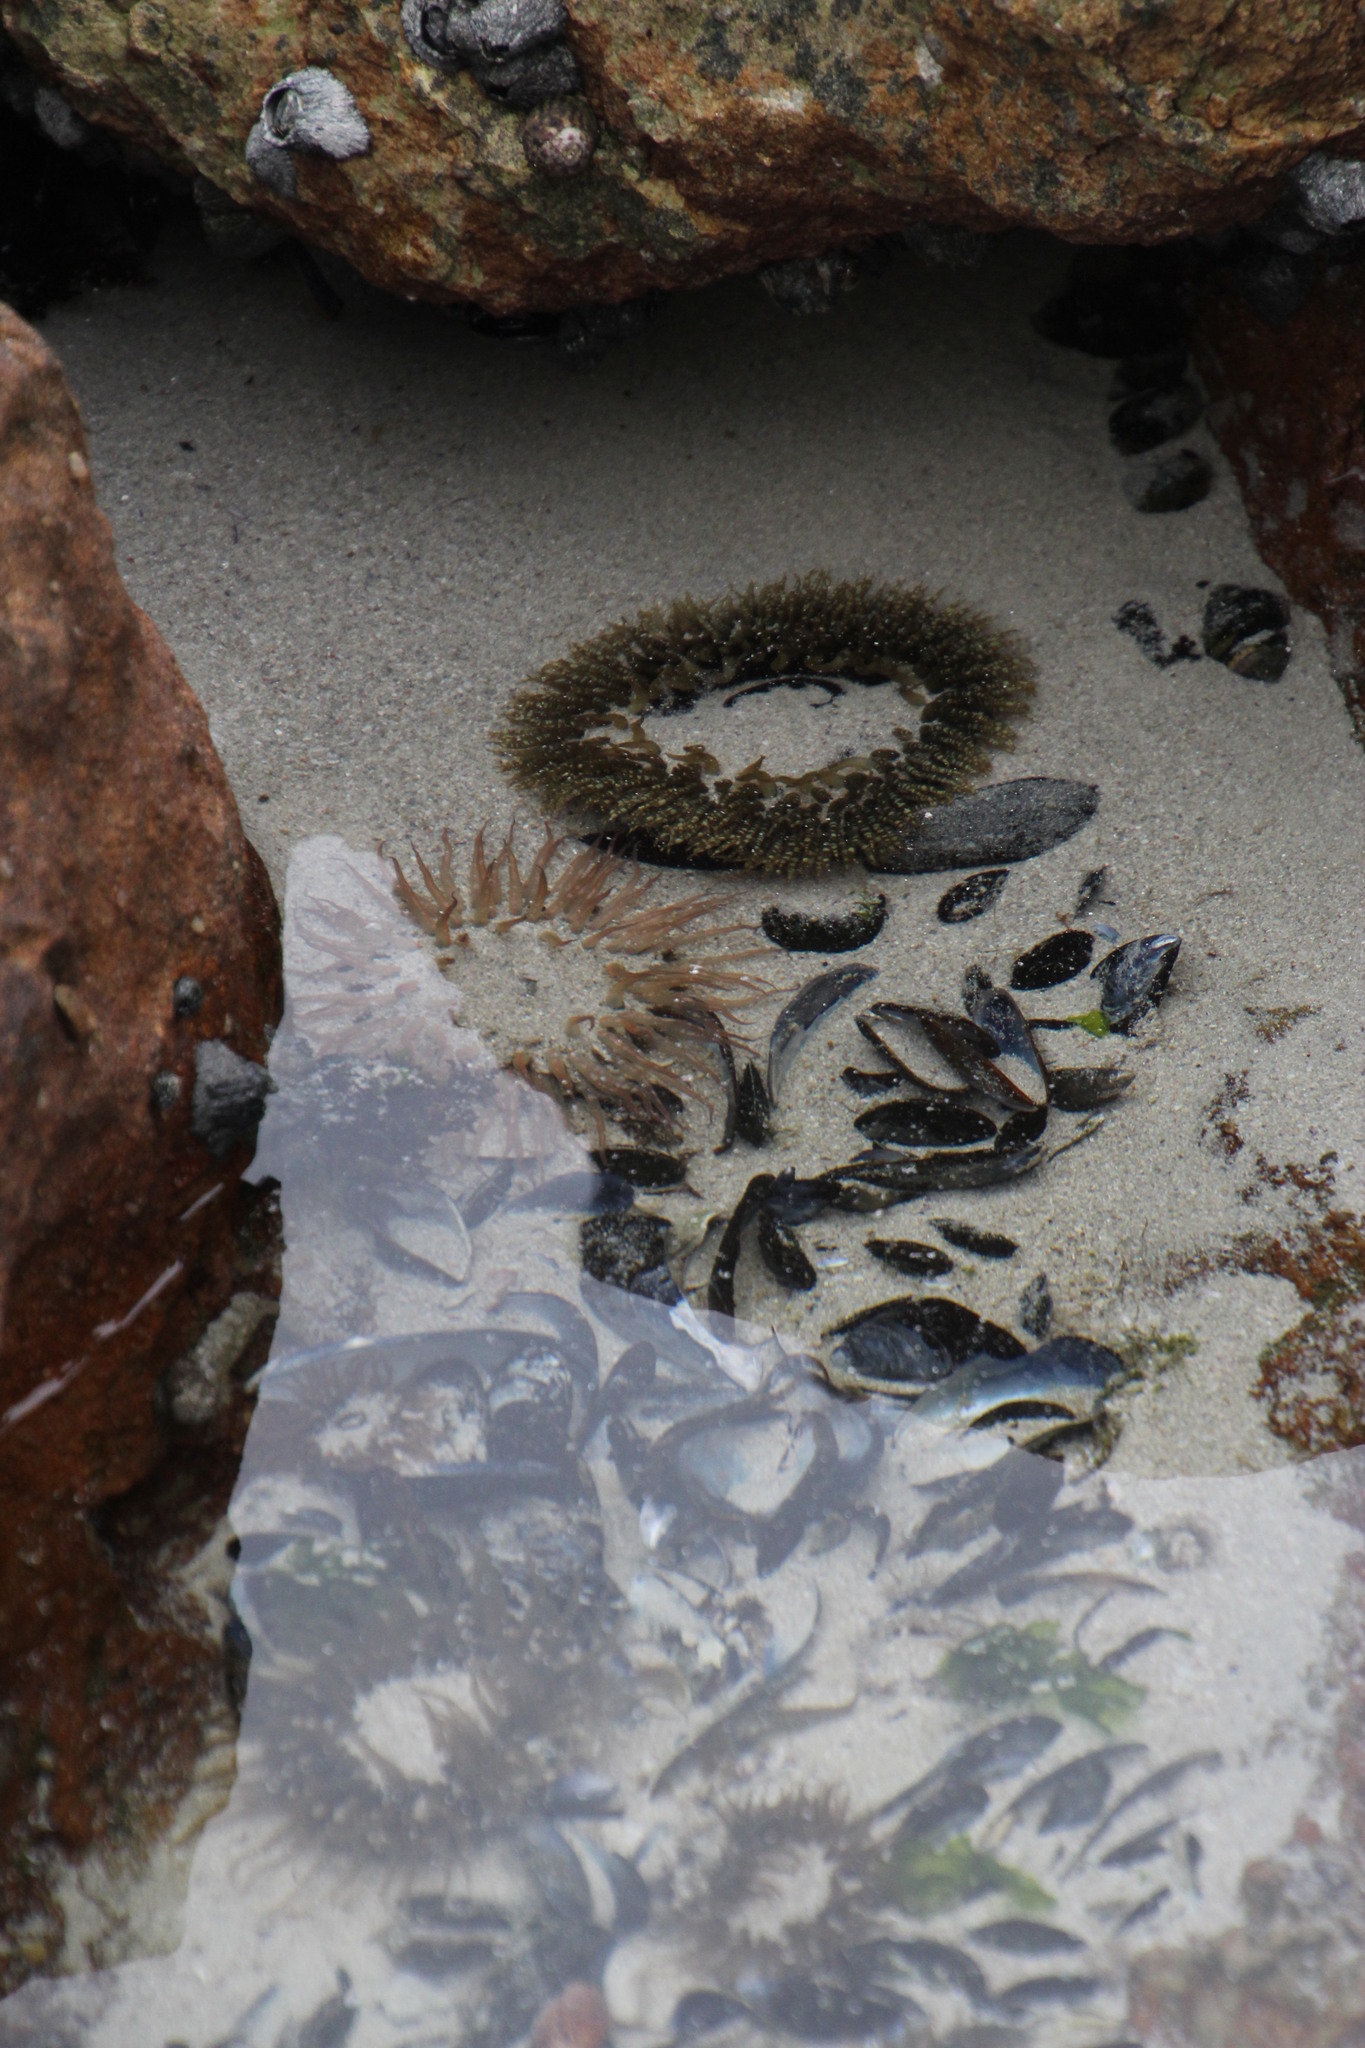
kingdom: Animalia
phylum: Cnidaria
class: Anthozoa
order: Actiniaria
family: Actiniidae
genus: Bunodactis
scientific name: Bunodactis reynaudi
